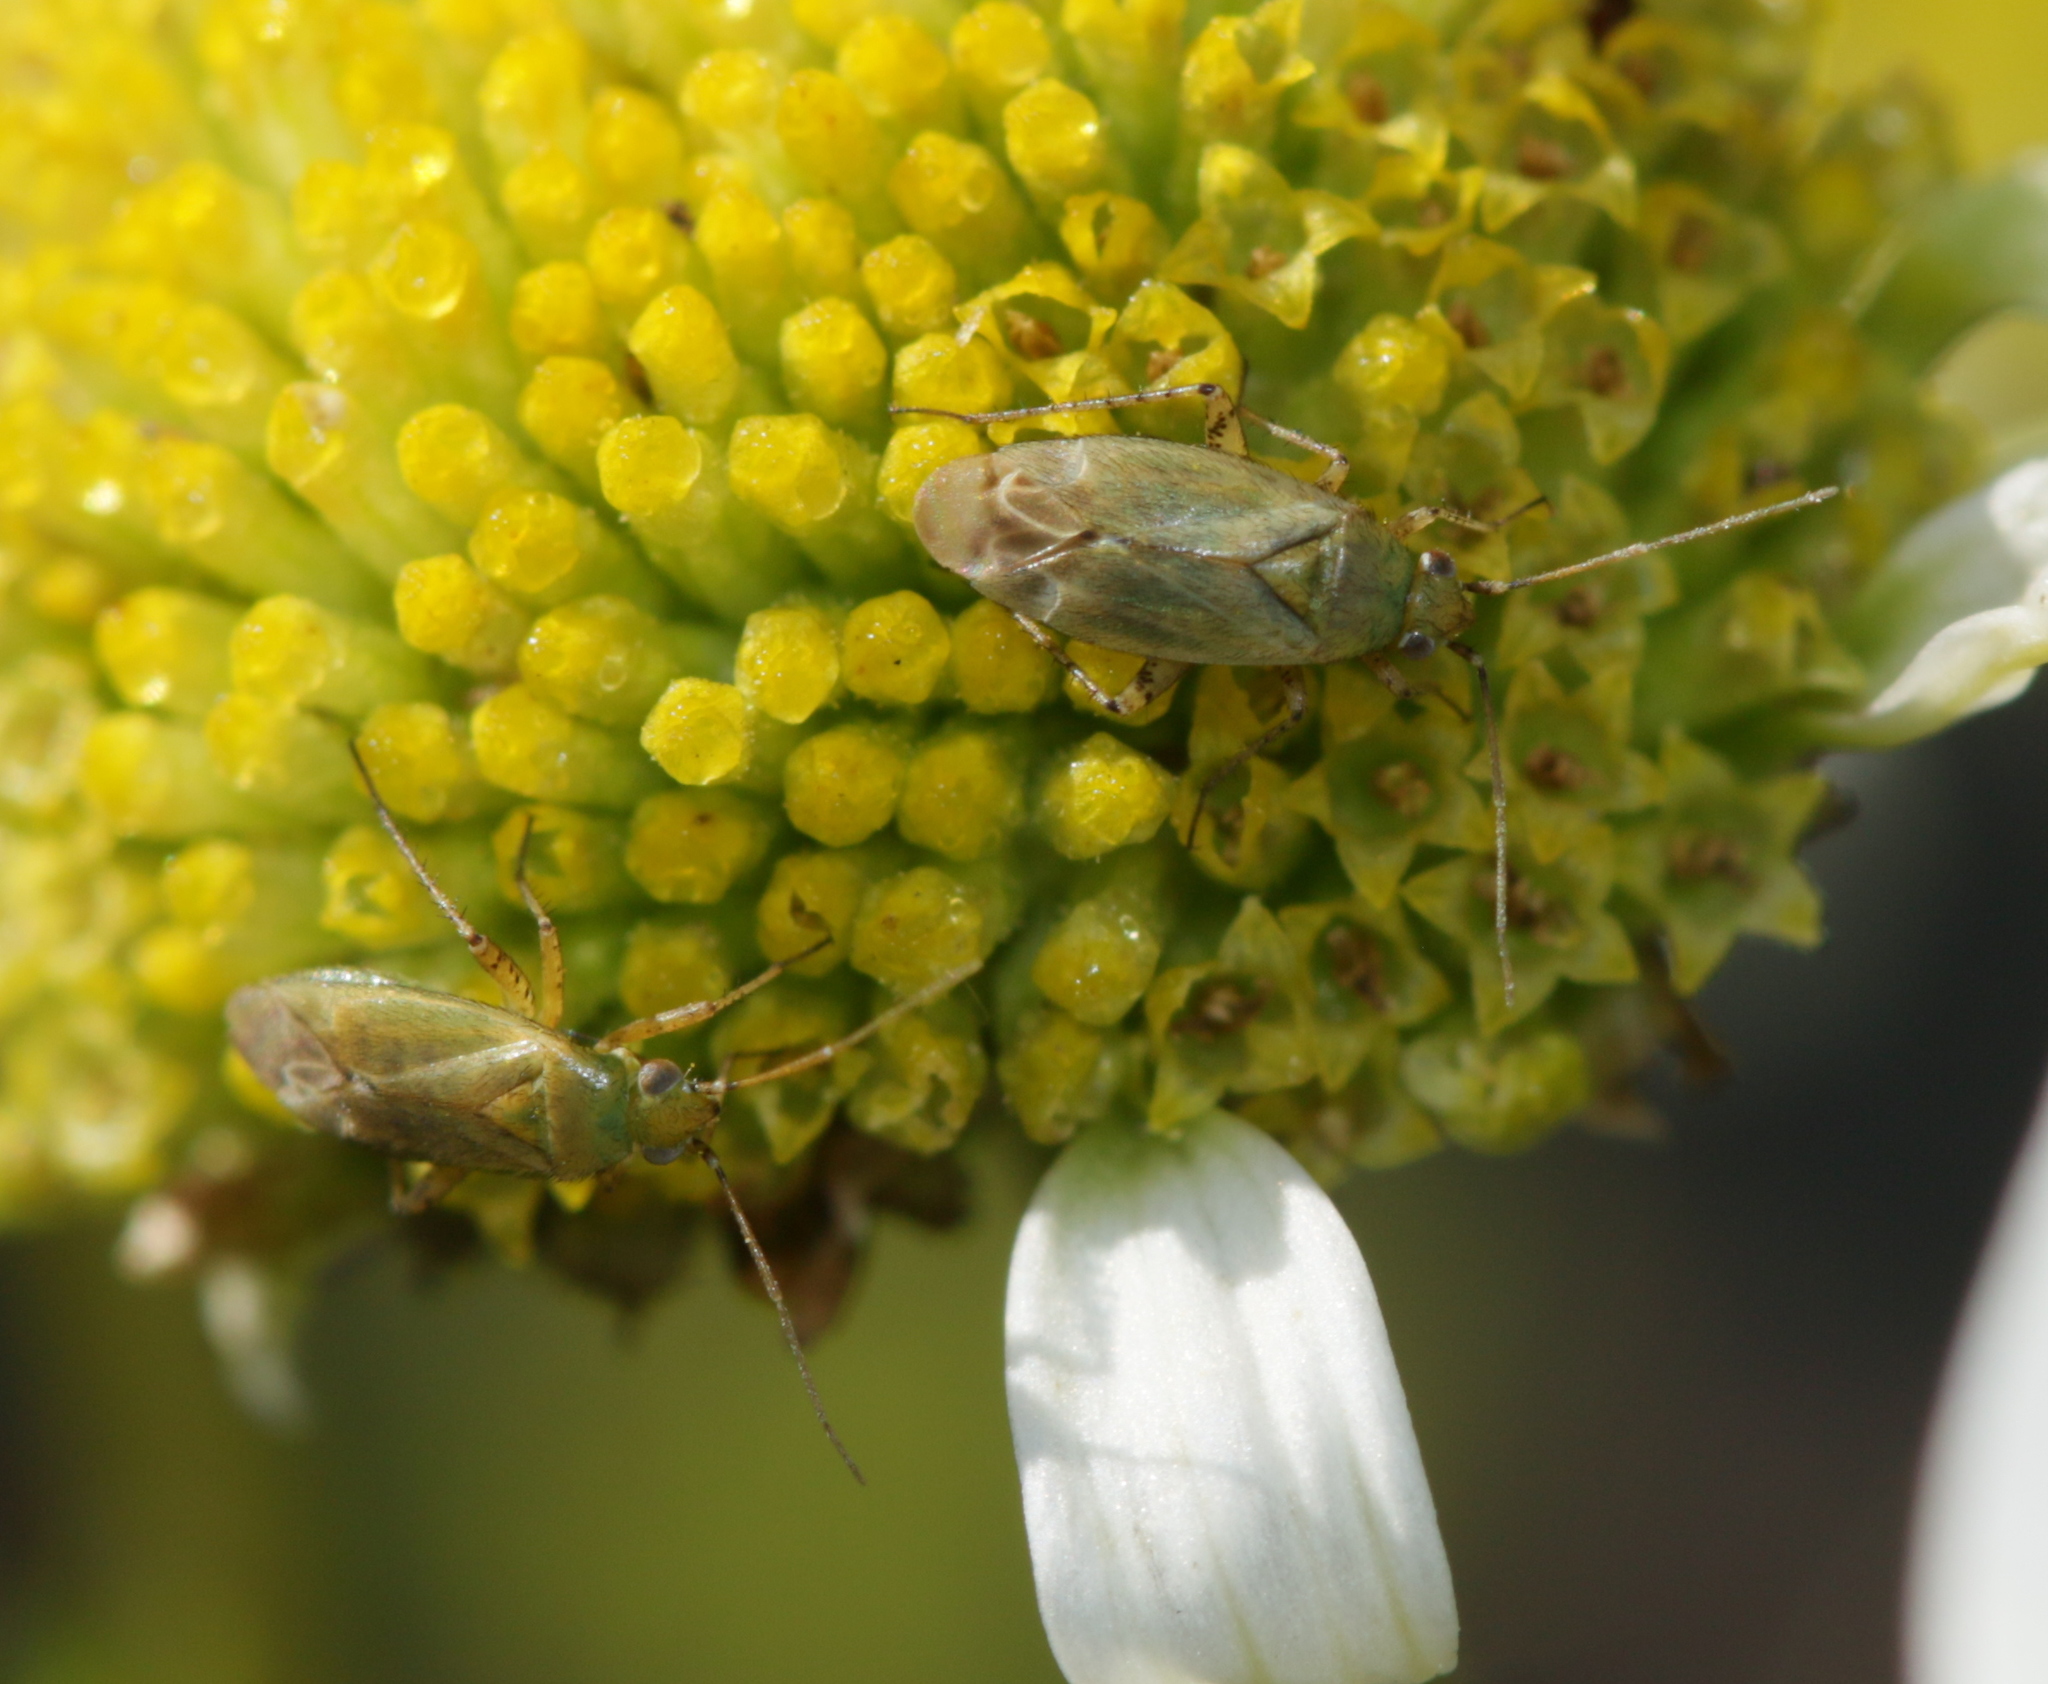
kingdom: Animalia
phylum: Arthropoda
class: Insecta
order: Hemiptera
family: Miridae
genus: Plagiognathus
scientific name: Plagiognathus chrysanthemi
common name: Plant bug
